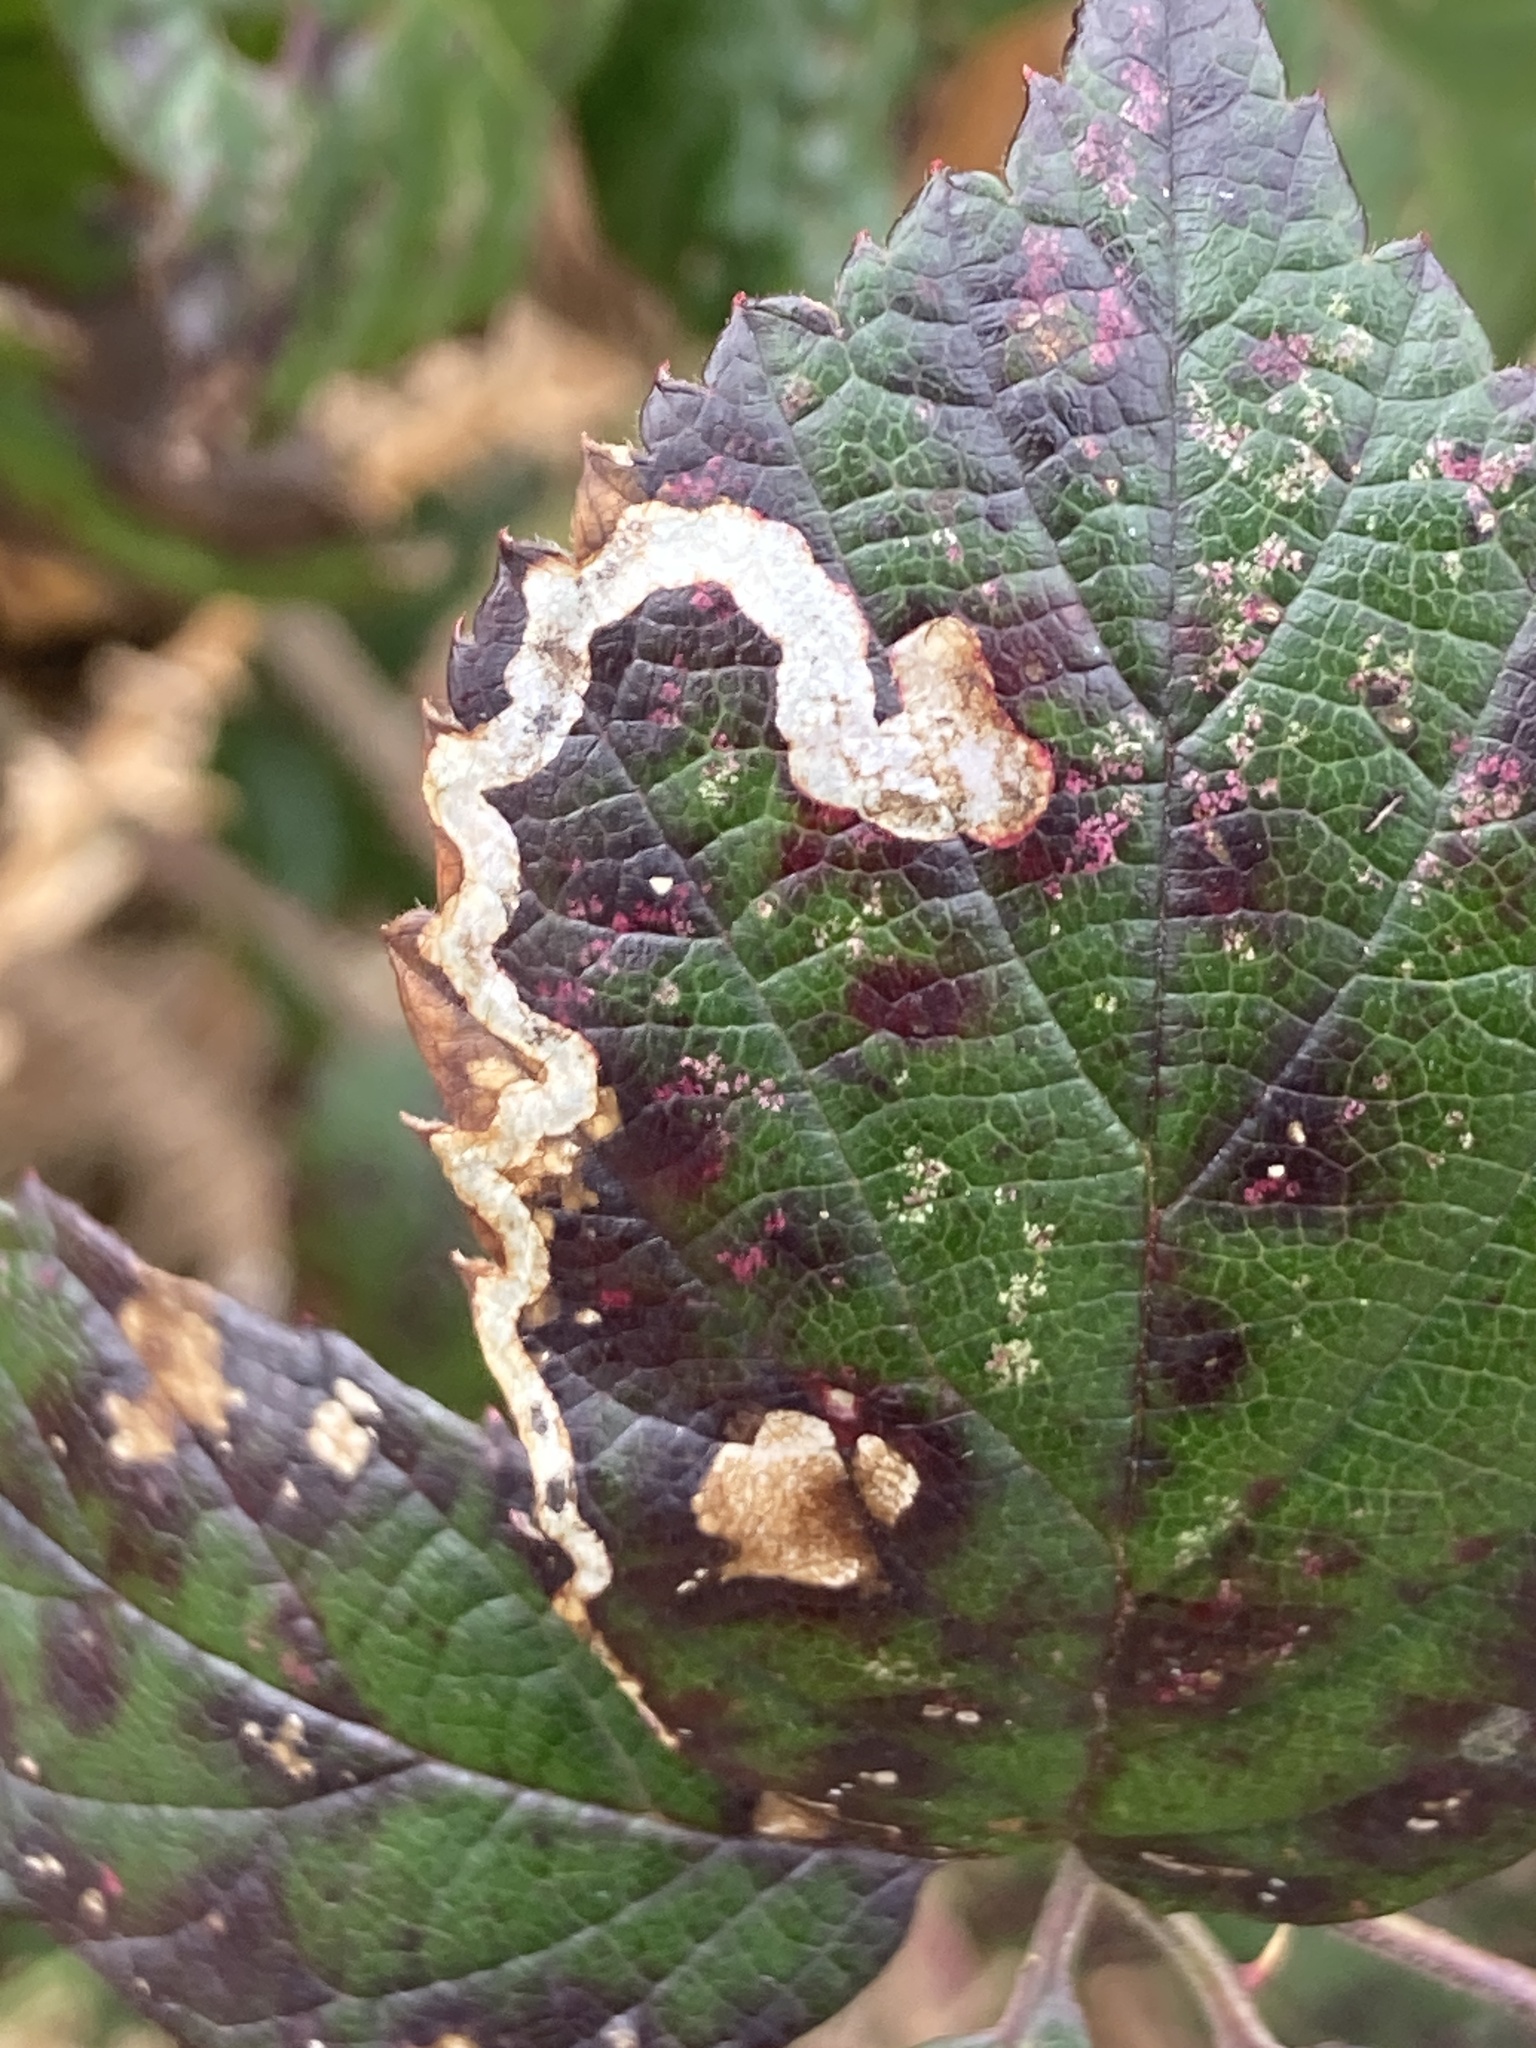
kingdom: Animalia
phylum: Arthropoda
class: Insecta
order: Lepidoptera
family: Nepticulidae
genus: Stigmella
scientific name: Stigmella aurella
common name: Golden pigmy
